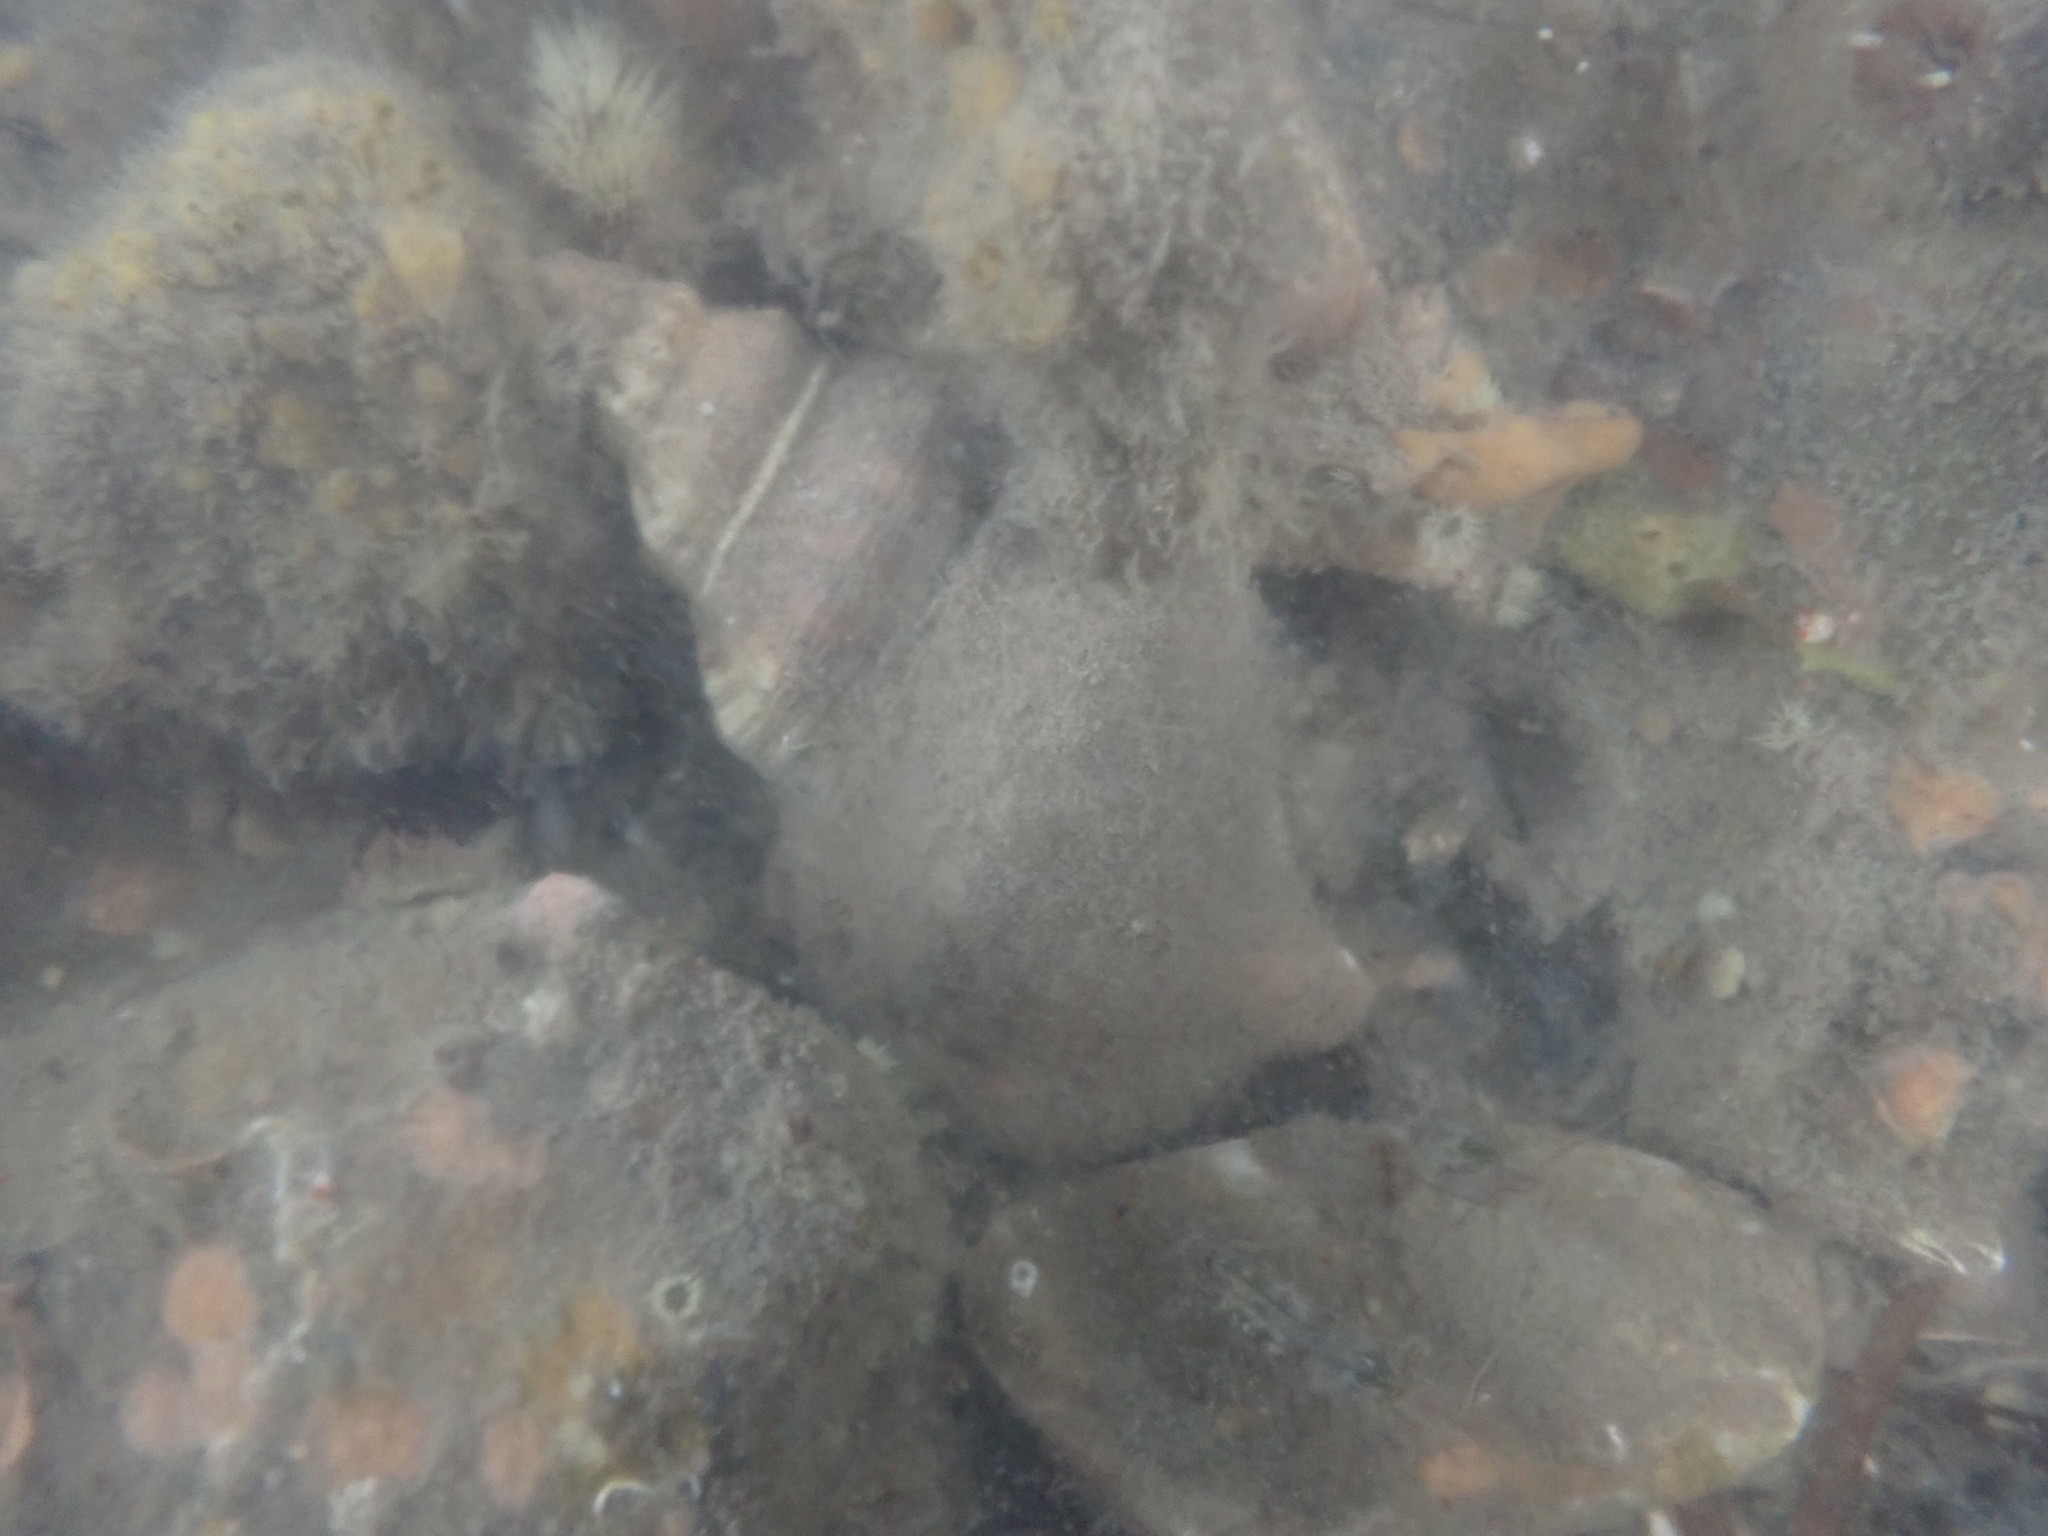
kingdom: Animalia
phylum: Mollusca
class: Gastropoda
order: Littorinimorpha
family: Ranellidae
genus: Ranella
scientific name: Ranella australasia
